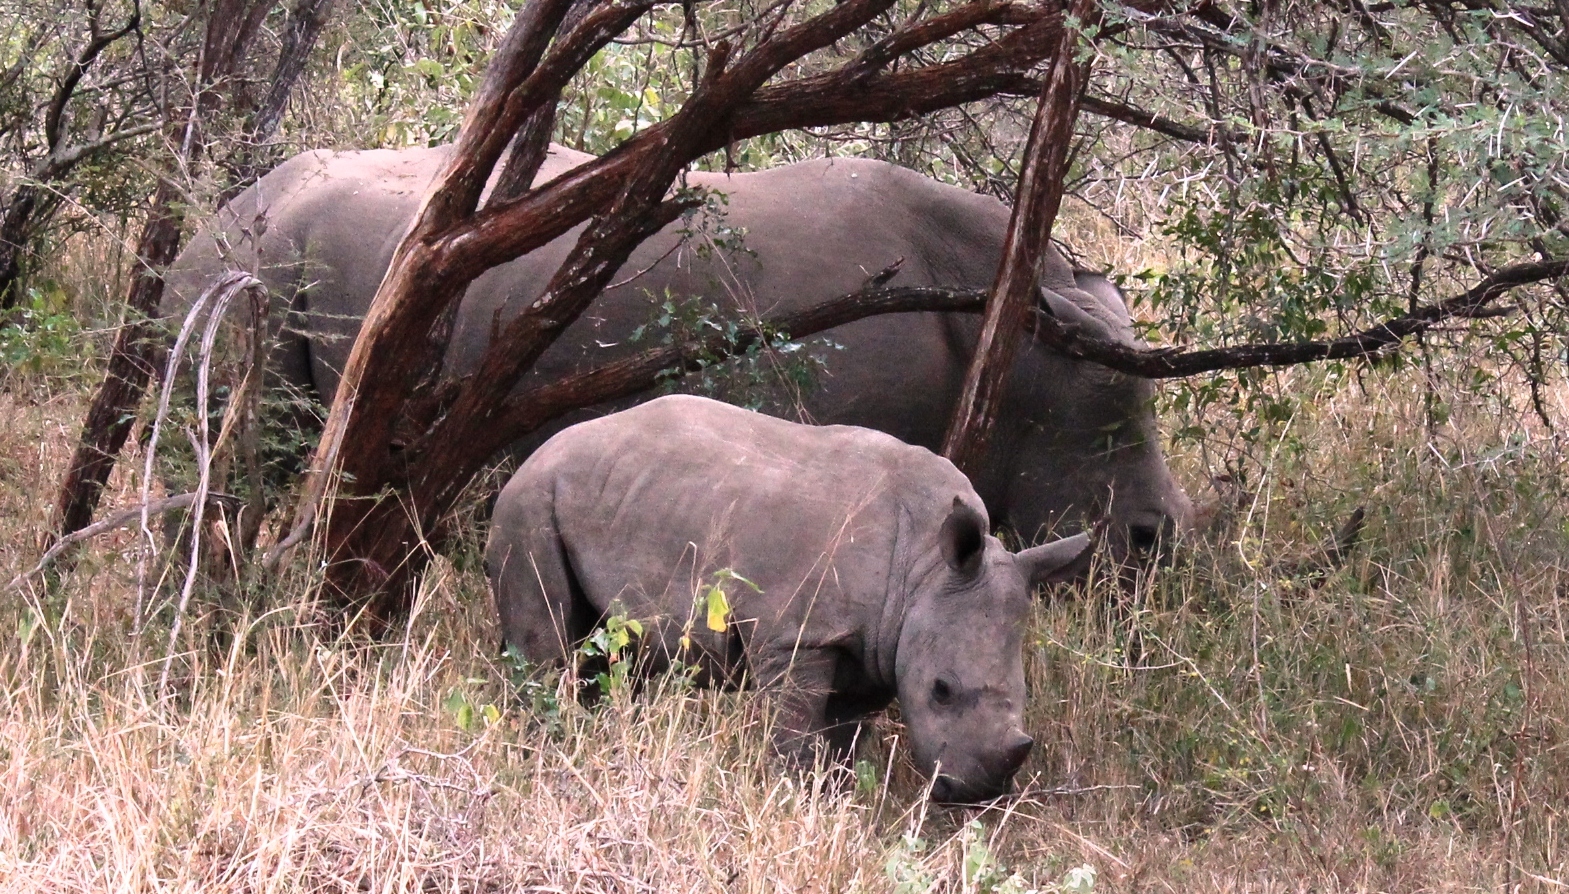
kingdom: Animalia
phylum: Chordata
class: Mammalia
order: Perissodactyla
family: Rhinocerotidae
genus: Ceratotherium
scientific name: Ceratotherium simum
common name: White rhinoceros
